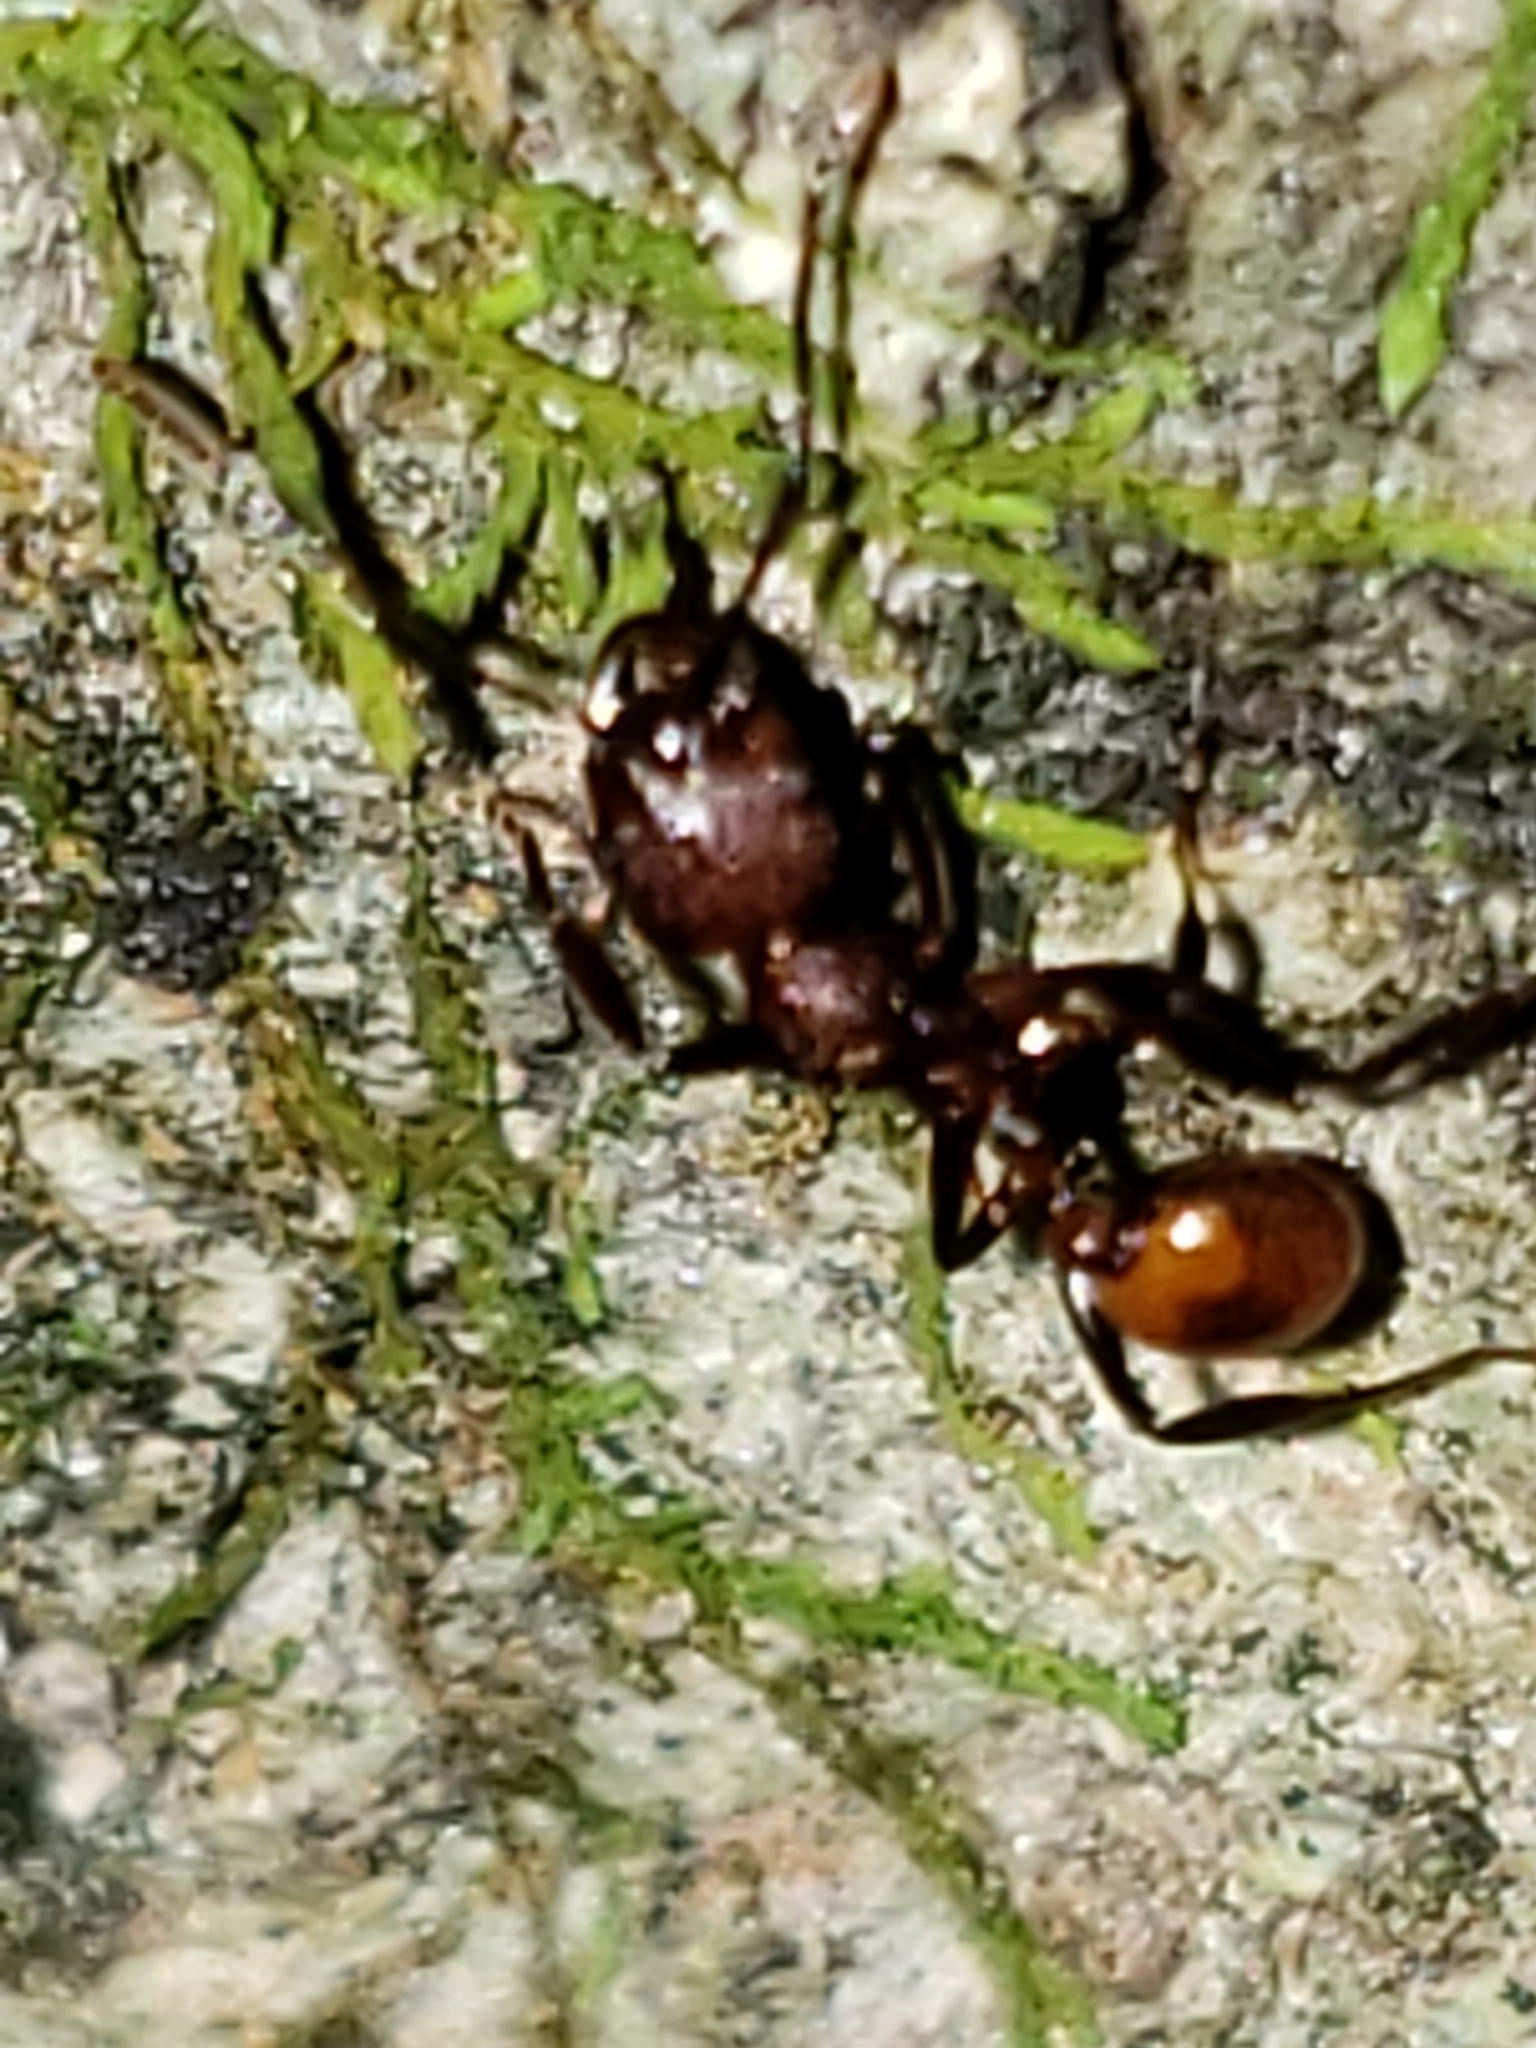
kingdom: Animalia
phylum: Arthropoda
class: Insecta
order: Hymenoptera
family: Formicidae
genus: Aphaenogaster
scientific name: Aphaenogaster tennesseensis
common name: Tennessee thread-waisted ant
